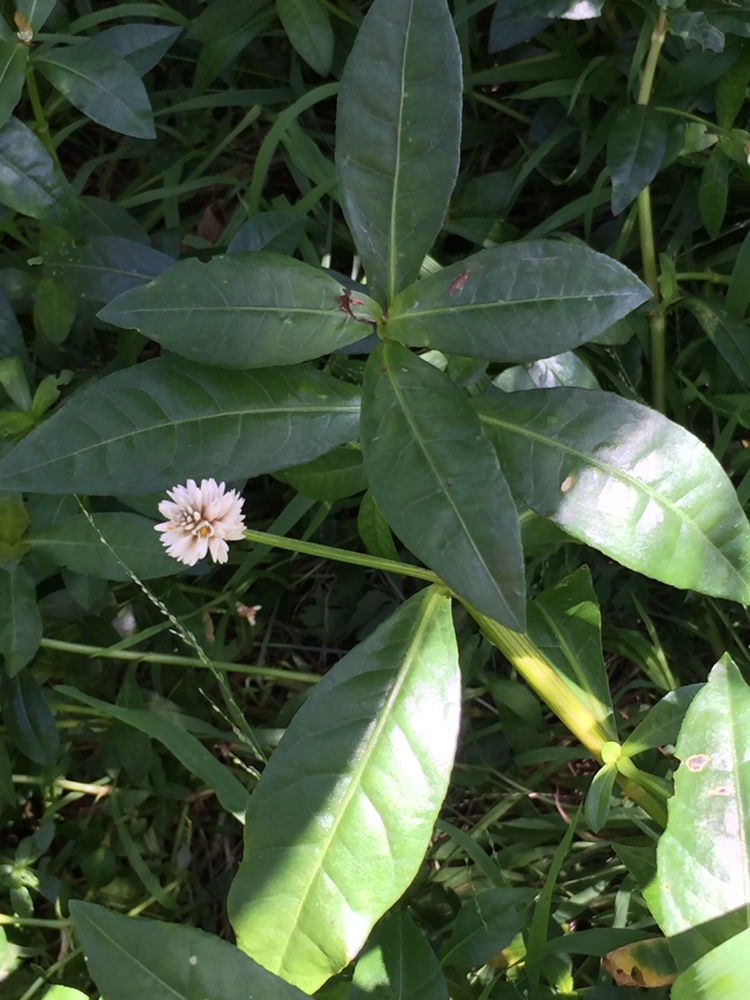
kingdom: Plantae
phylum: Tracheophyta
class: Magnoliopsida
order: Caryophyllales
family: Amaranthaceae
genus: Alternanthera
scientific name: Alternanthera philoxeroides
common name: Alligatorweed
